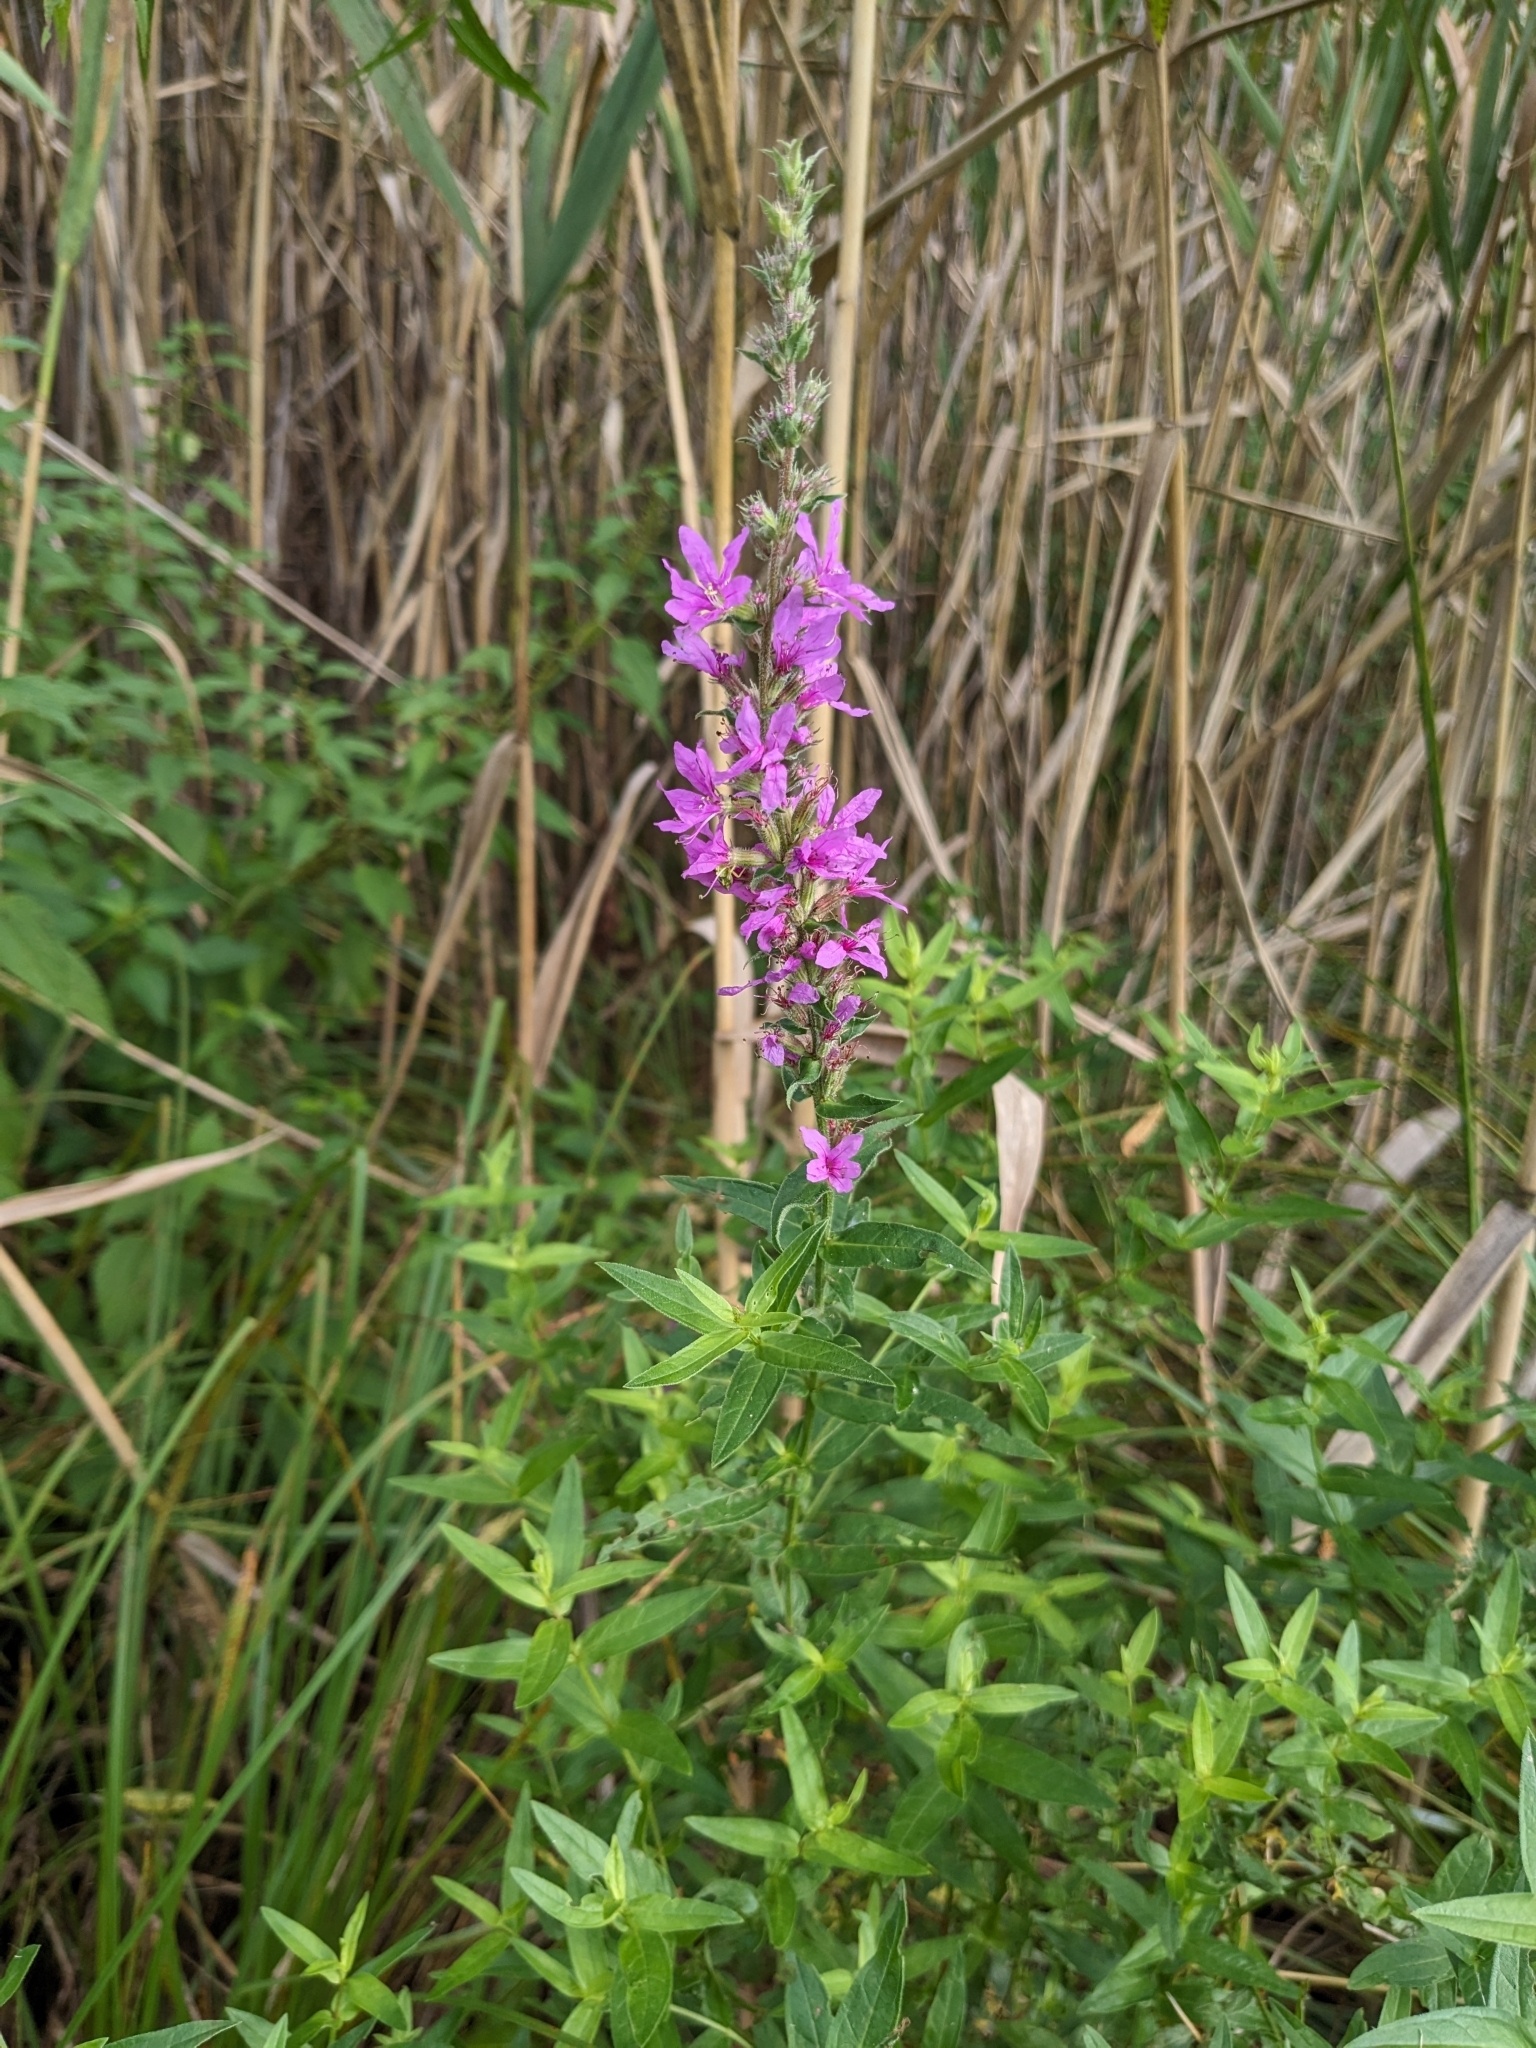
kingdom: Plantae
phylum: Tracheophyta
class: Magnoliopsida
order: Myrtales
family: Lythraceae
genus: Lythrum
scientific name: Lythrum salicaria
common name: Purple loosestrife
